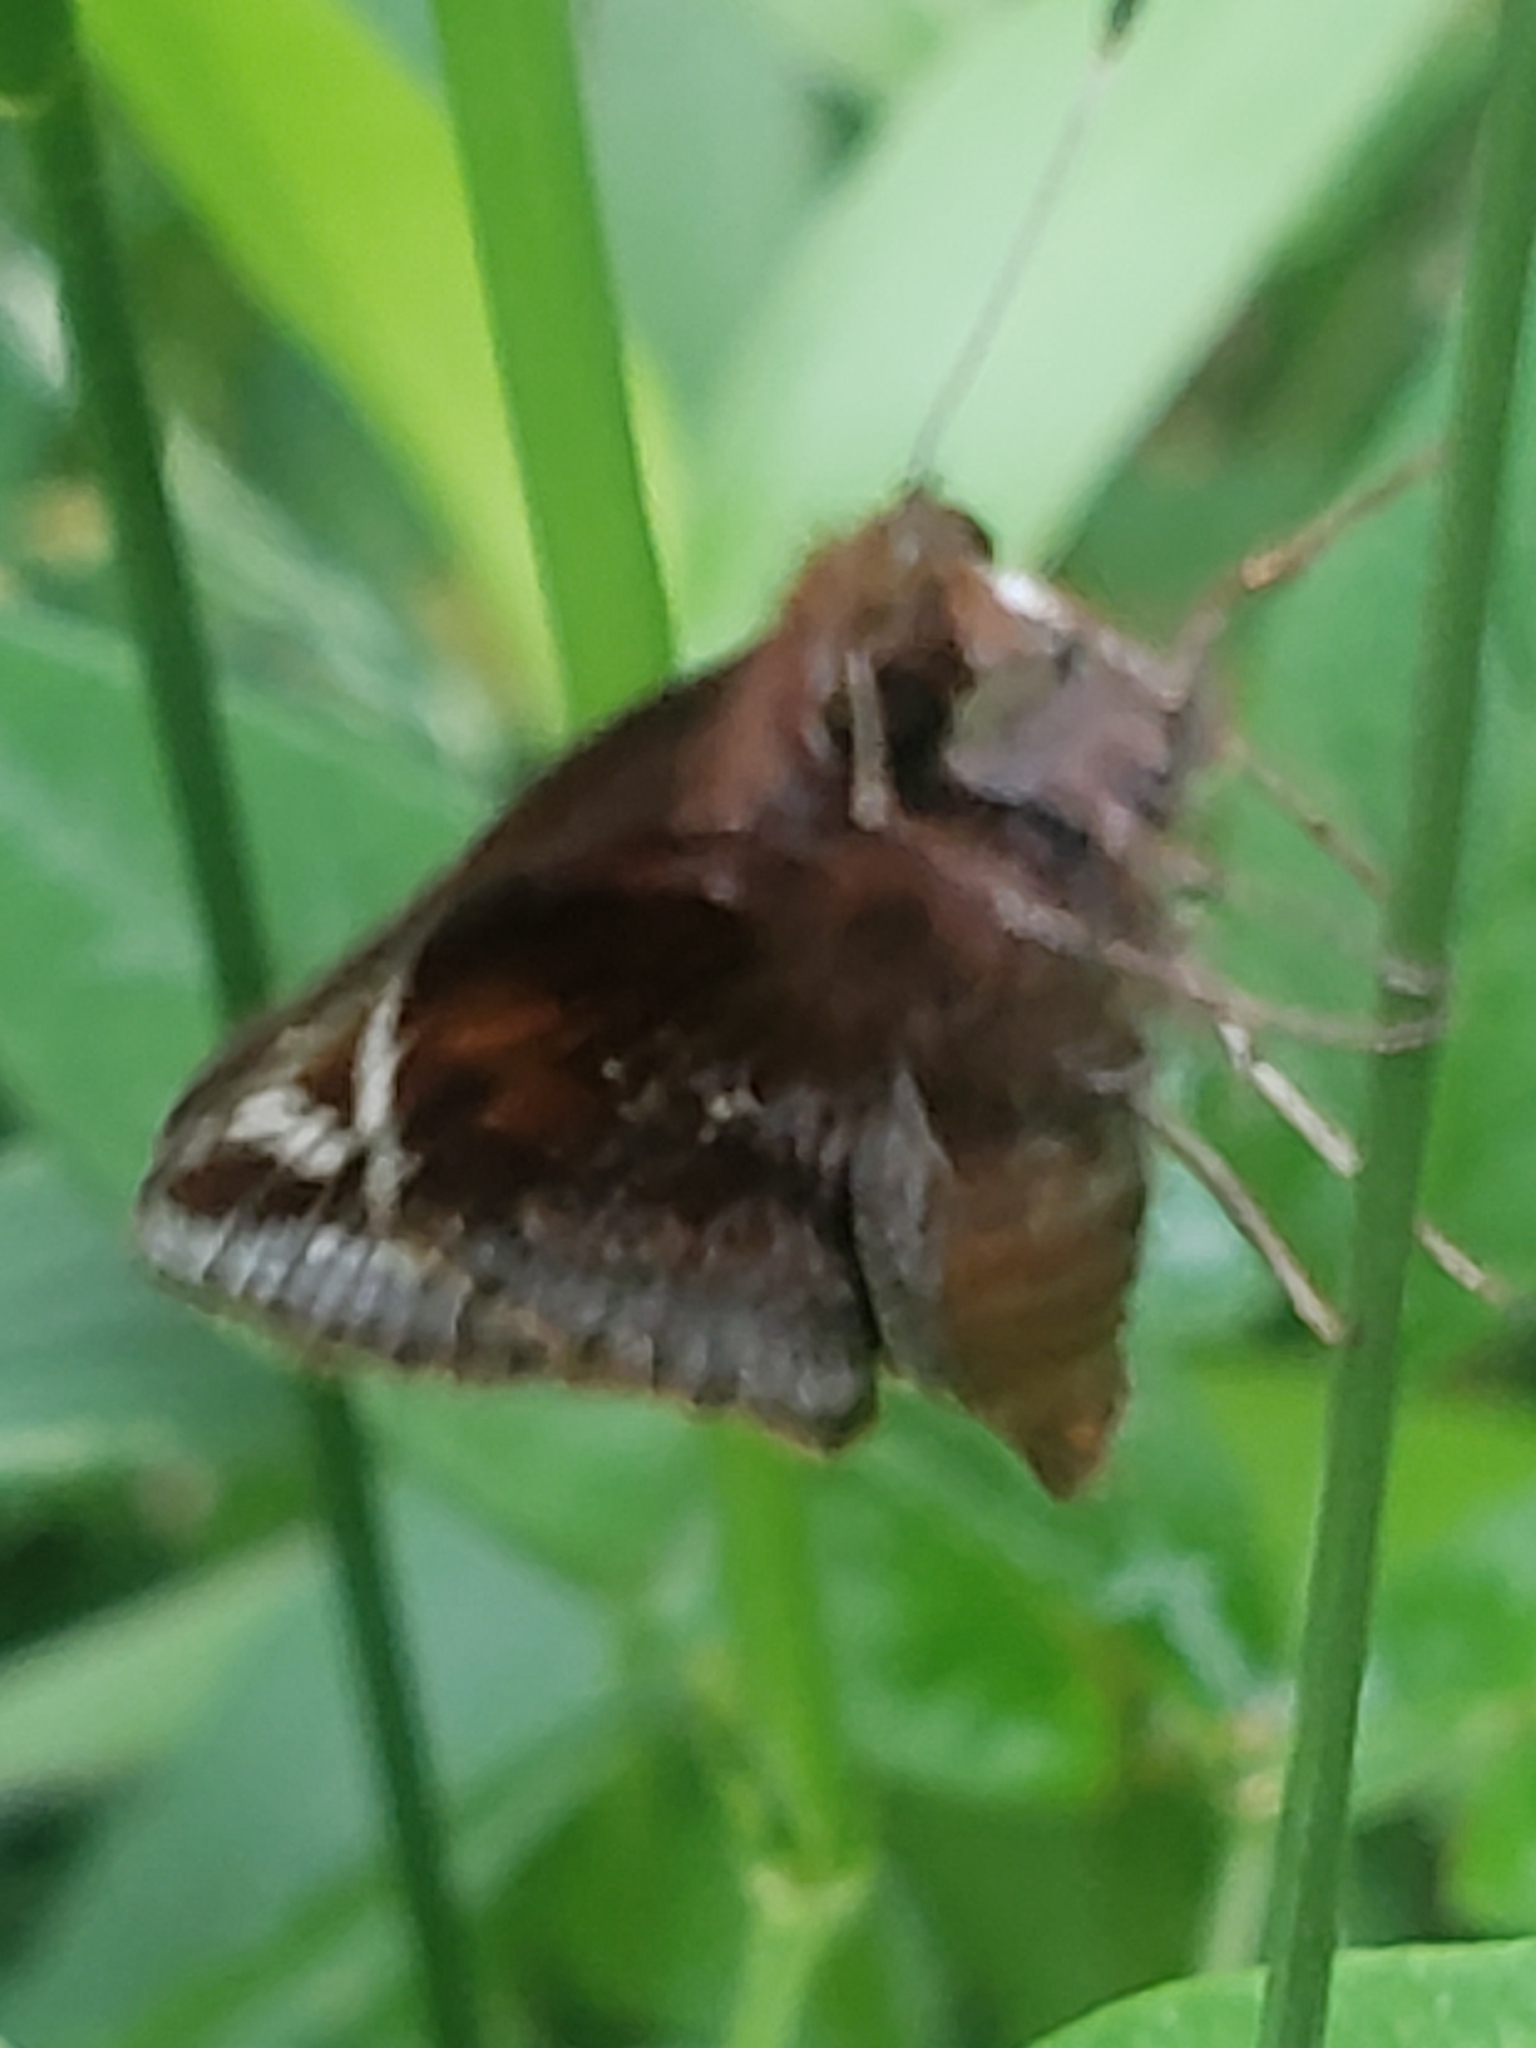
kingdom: Animalia
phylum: Arthropoda
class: Insecta
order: Lepidoptera
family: Hesperiidae
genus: Lon
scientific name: Lon zabulon
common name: Zabulon skipper
